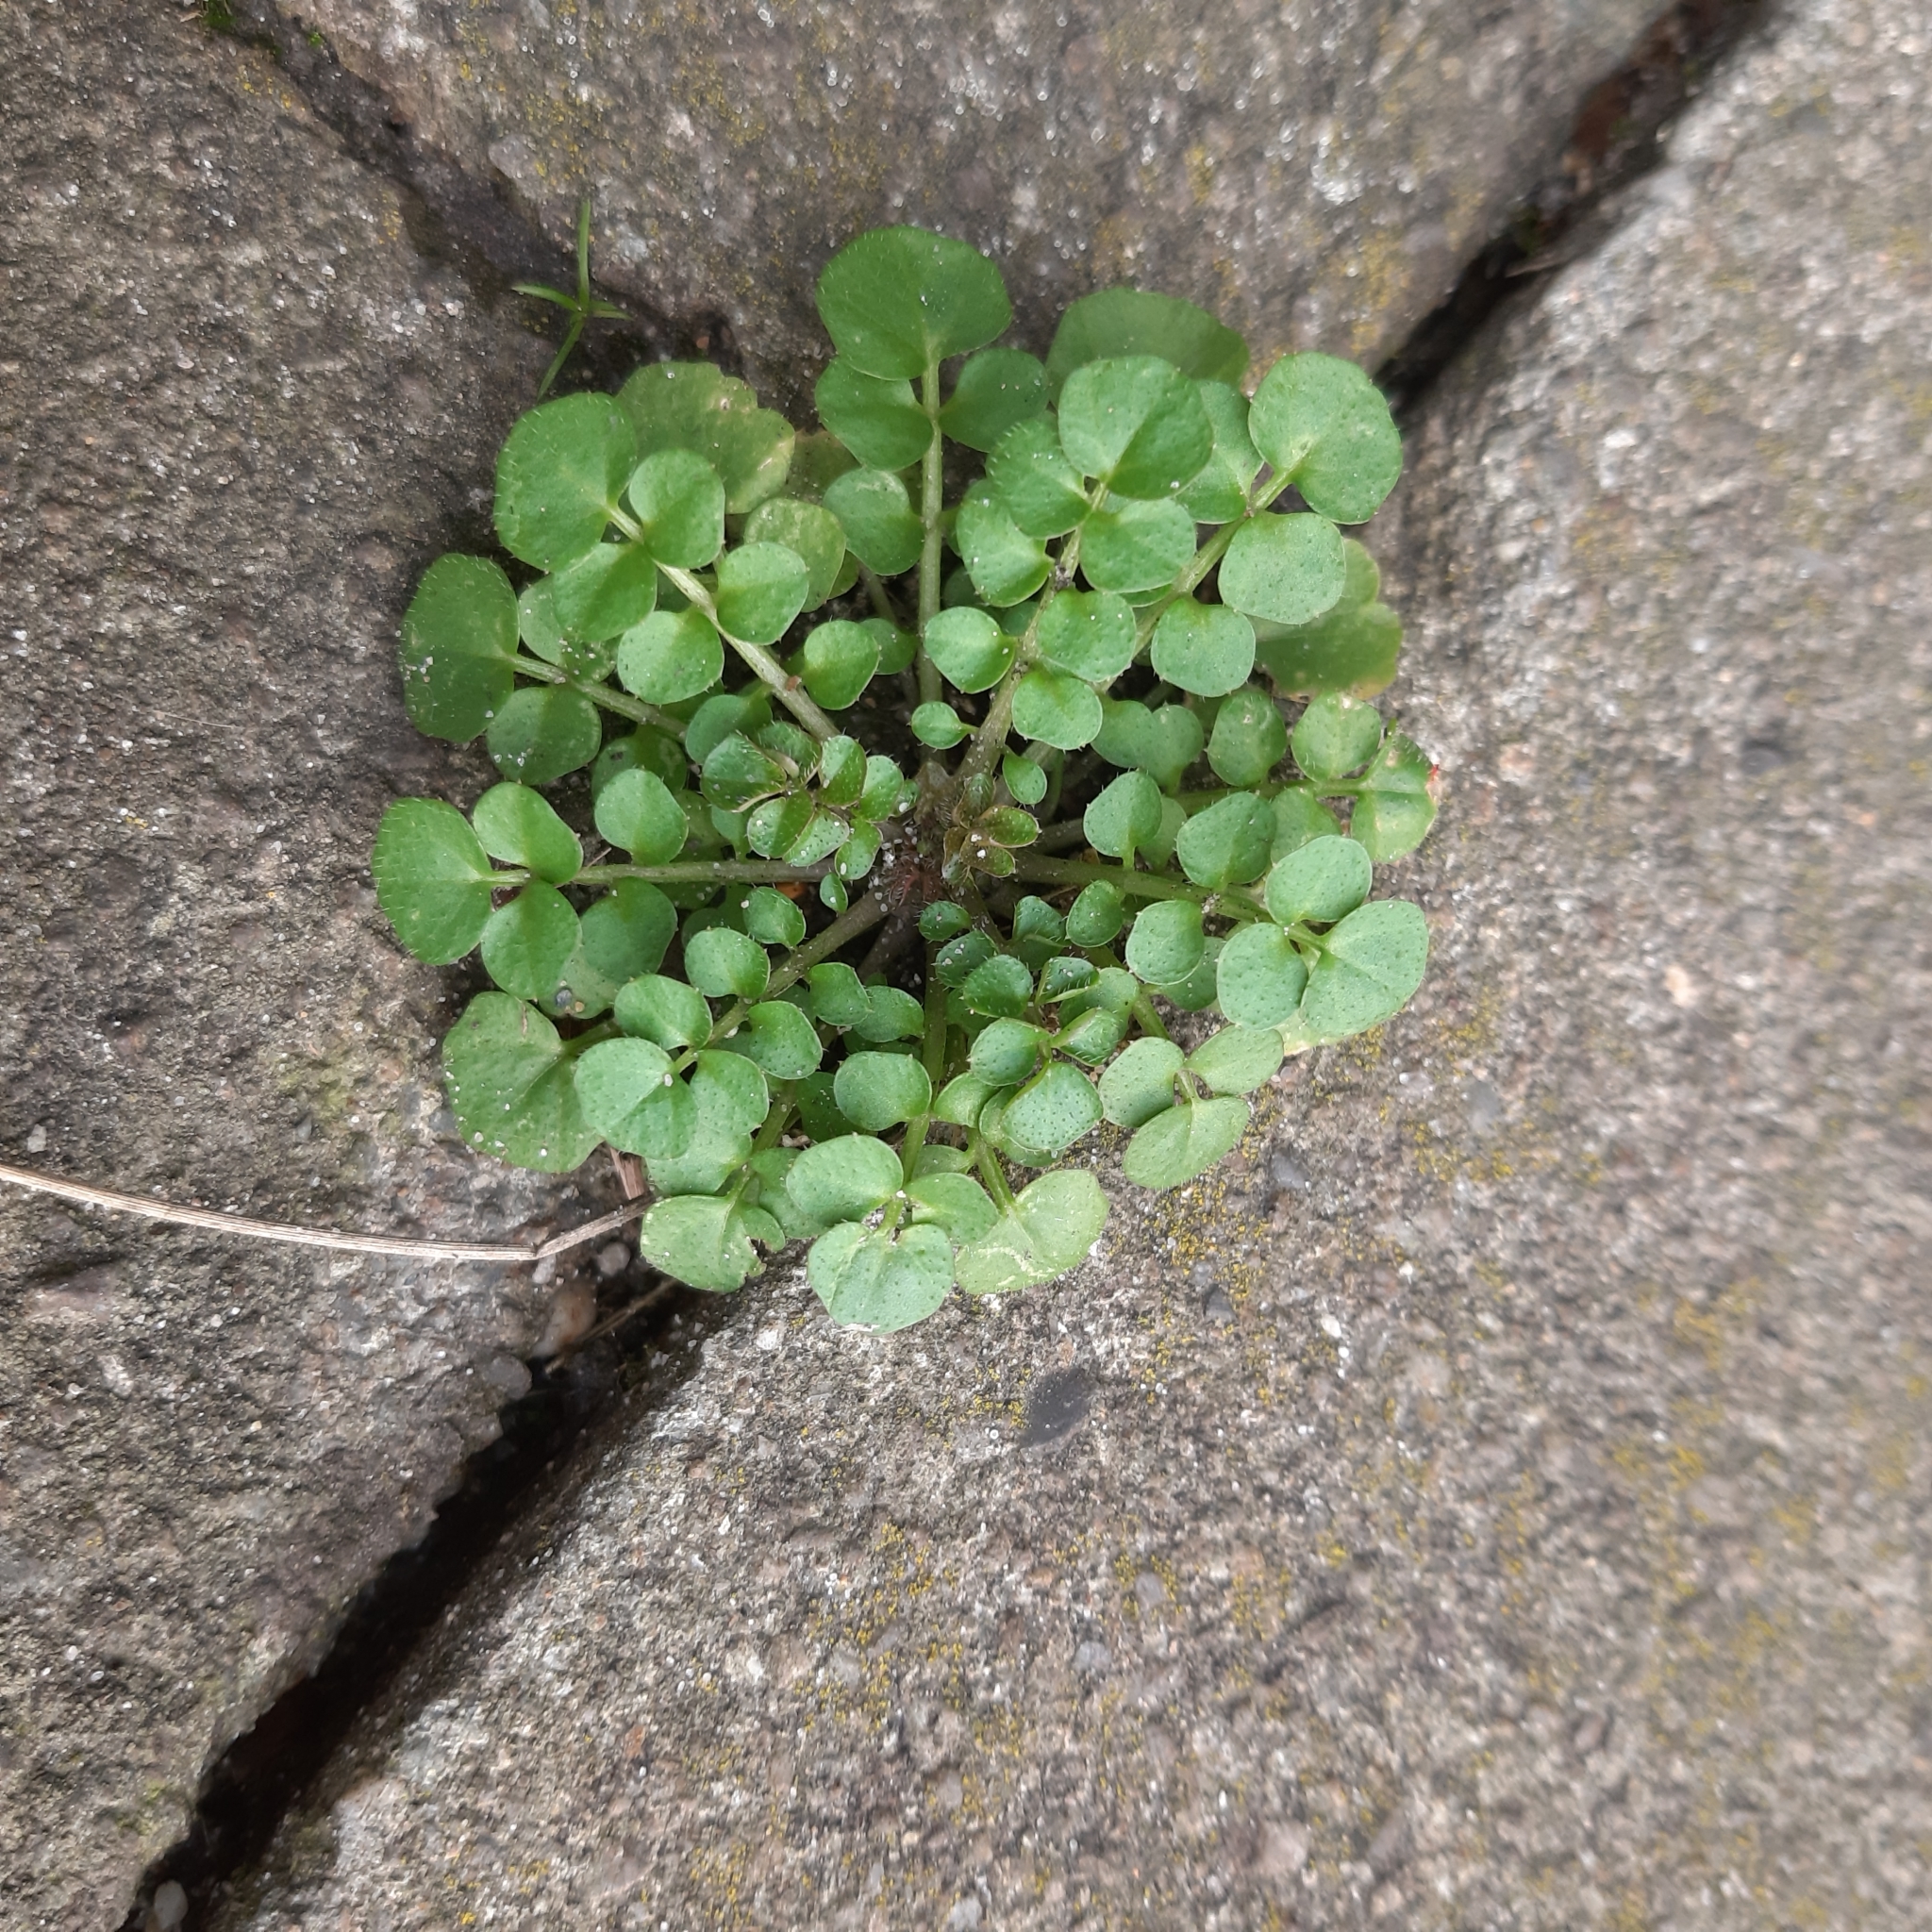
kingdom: Plantae
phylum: Tracheophyta
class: Magnoliopsida
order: Brassicales
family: Brassicaceae
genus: Cardamine
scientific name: Cardamine hirsuta
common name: Hairy bittercress
